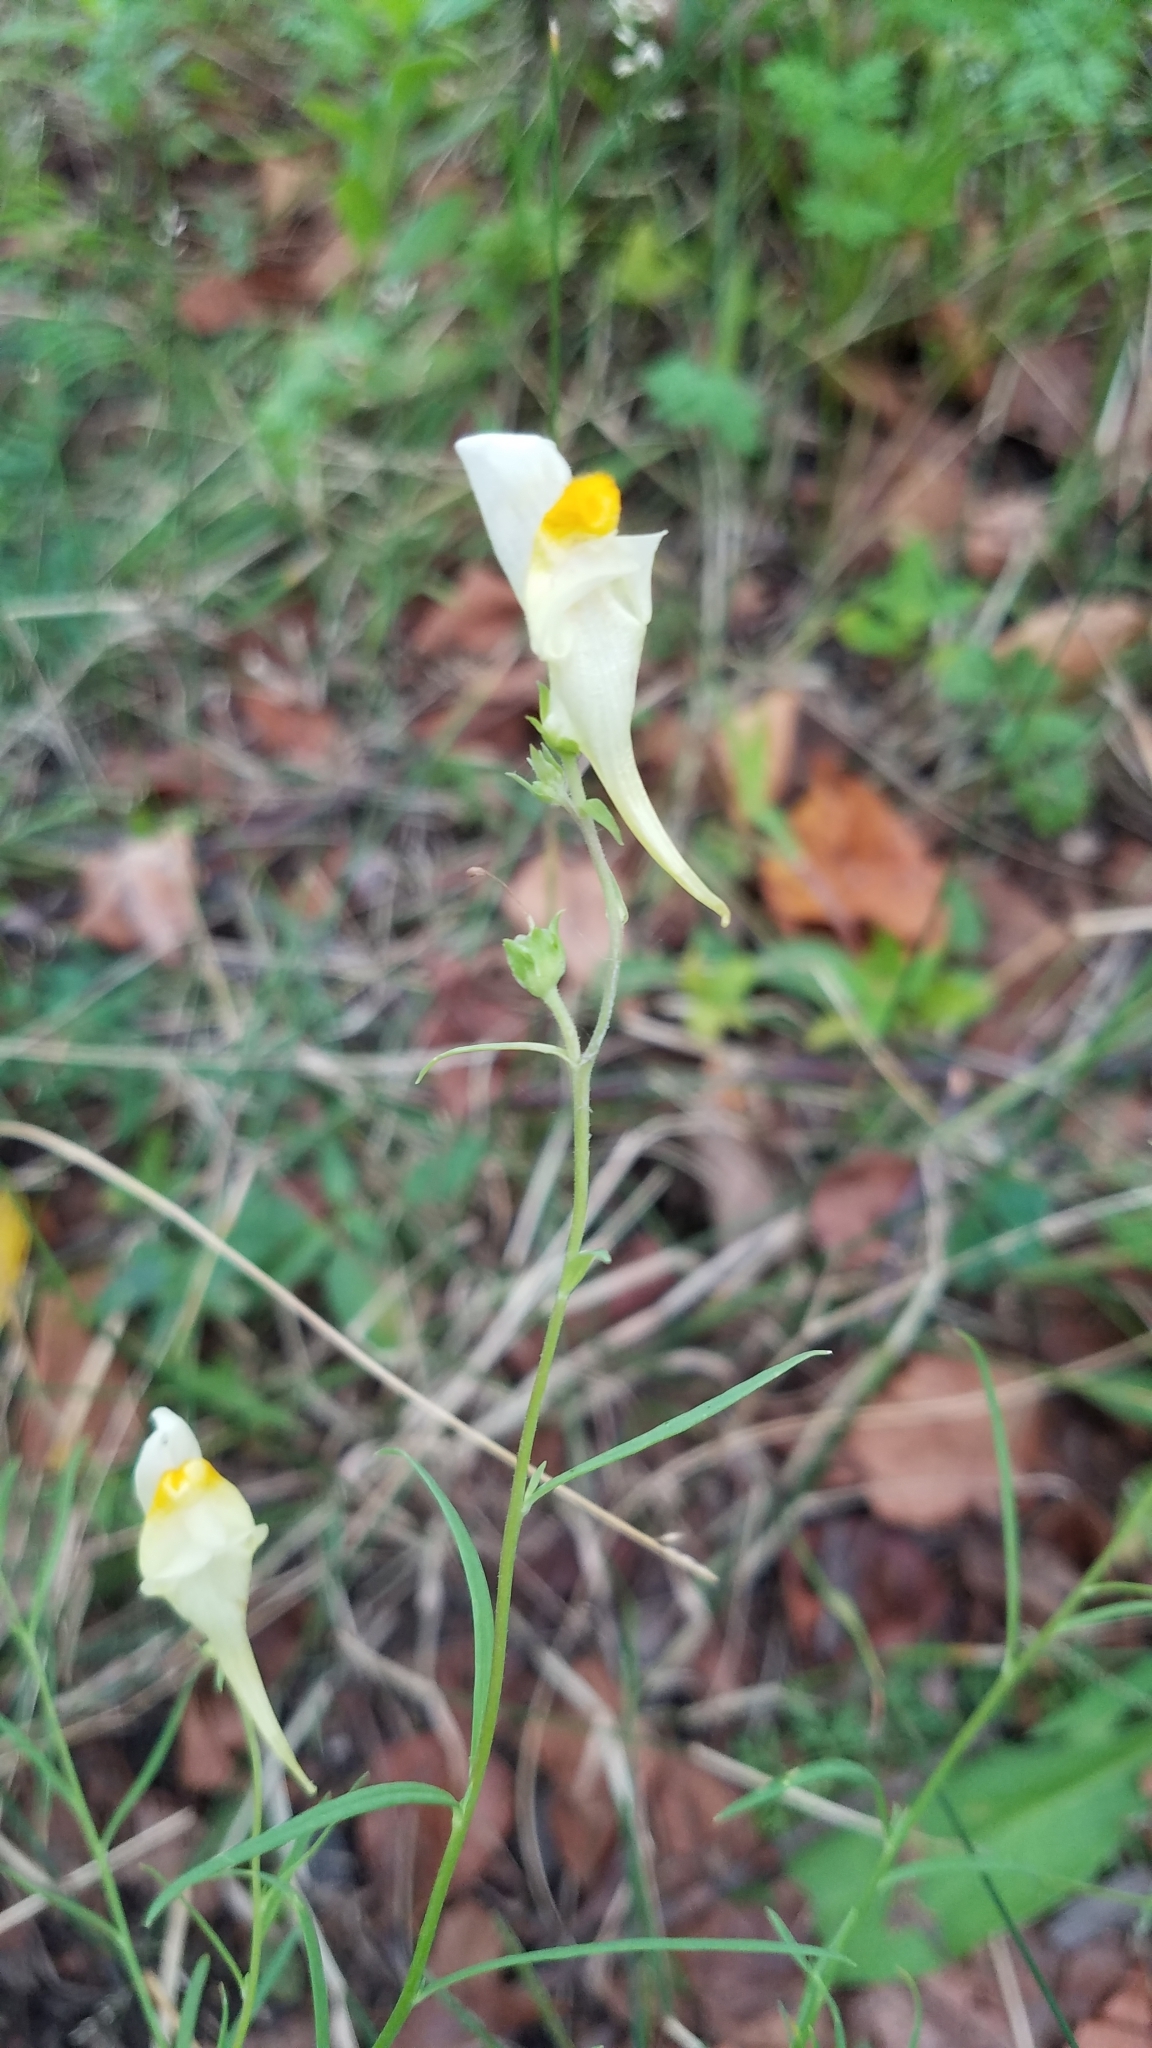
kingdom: Plantae
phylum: Tracheophyta
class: Magnoliopsida
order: Lamiales
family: Plantaginaceae
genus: Linaria
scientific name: Linaria vulgaris
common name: Butter and eggs
